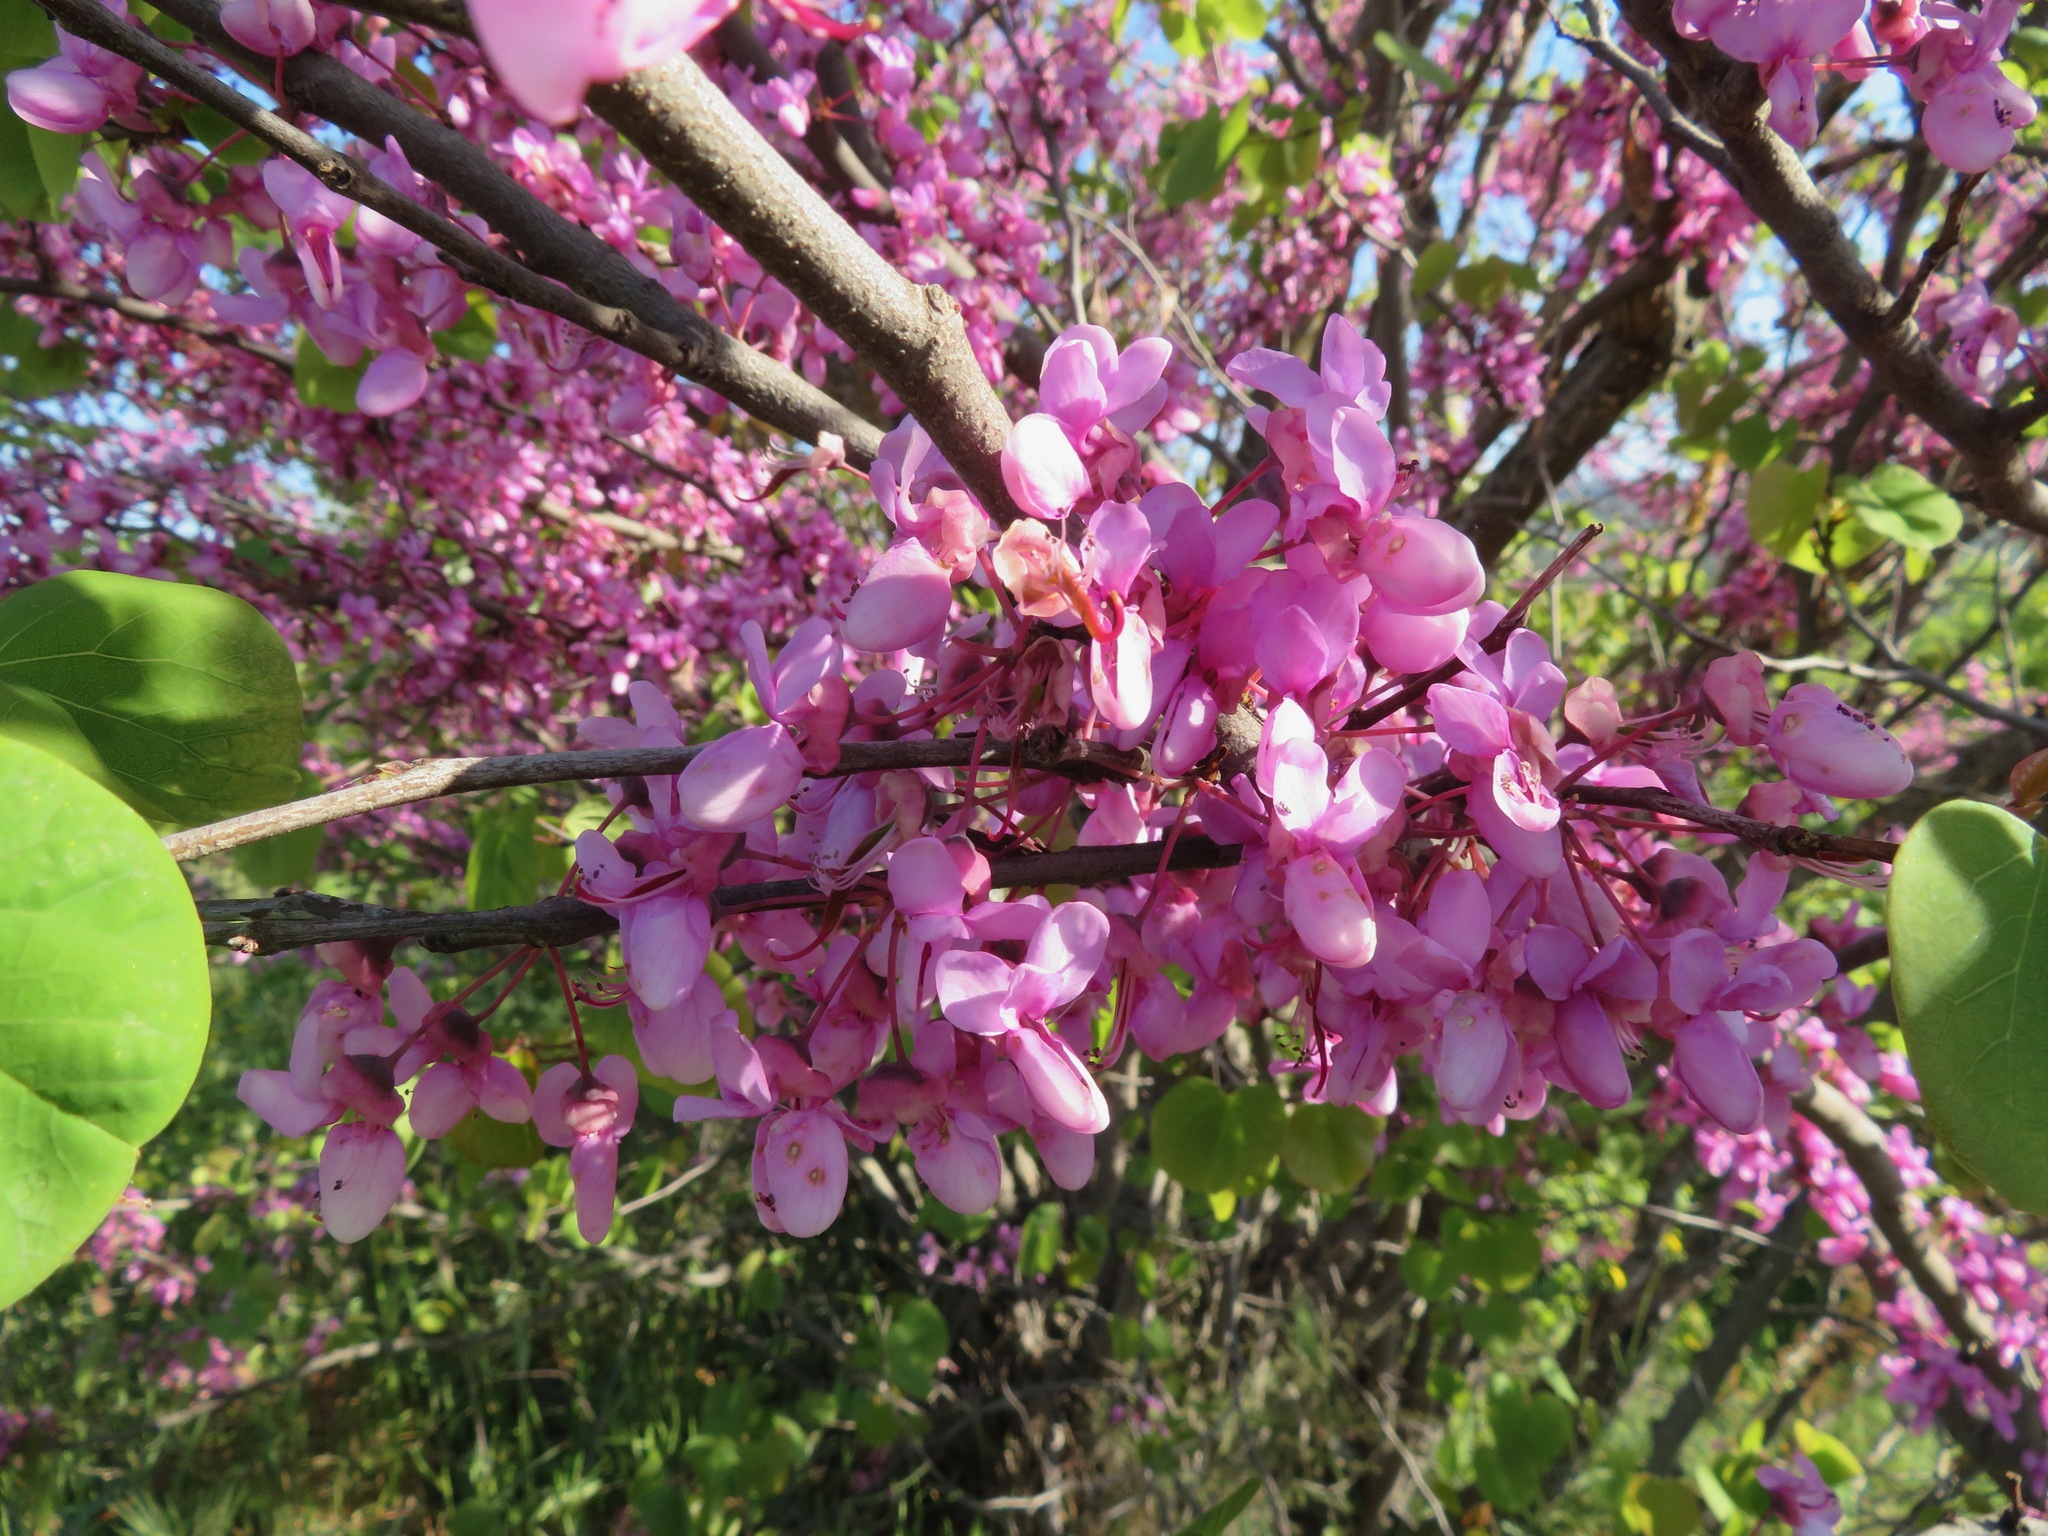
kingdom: Plantae
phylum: Tracheophyta
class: Magnoliopsida
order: Fabales
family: Fabaceae
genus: Cercis
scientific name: Cercis siliquastrum
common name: Judas tree
